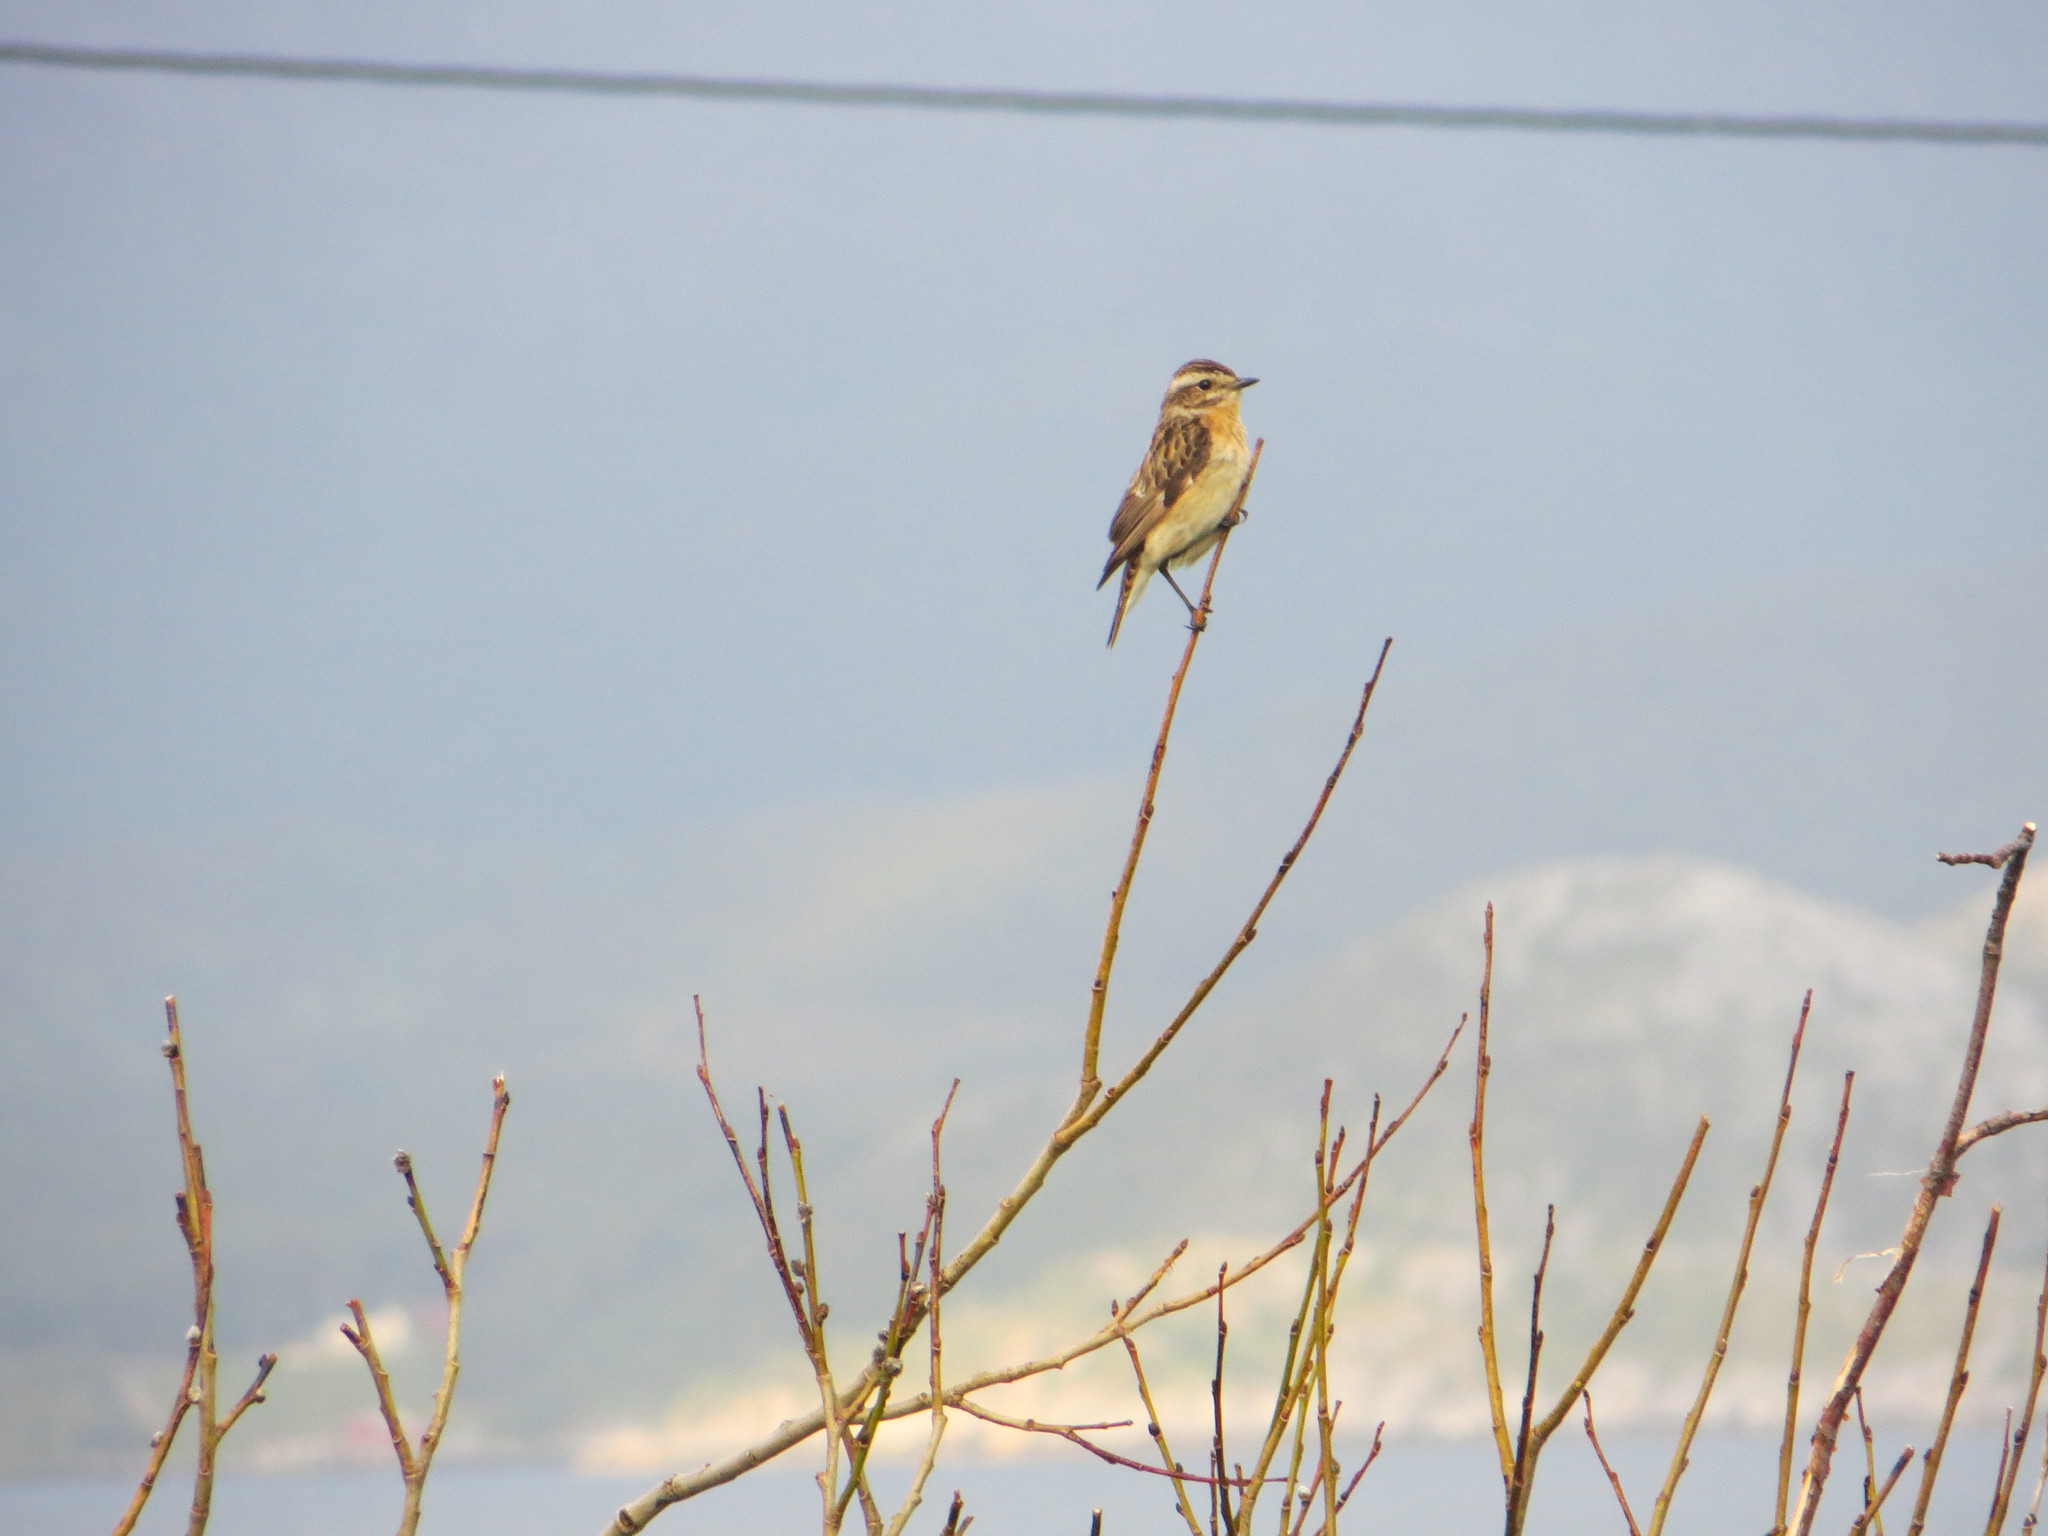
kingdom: Animalia
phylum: Chordata
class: Aves
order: Passeriformes
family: Muscicapidae
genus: Saxicola
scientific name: Saxicola rubetra
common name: Whinchat
